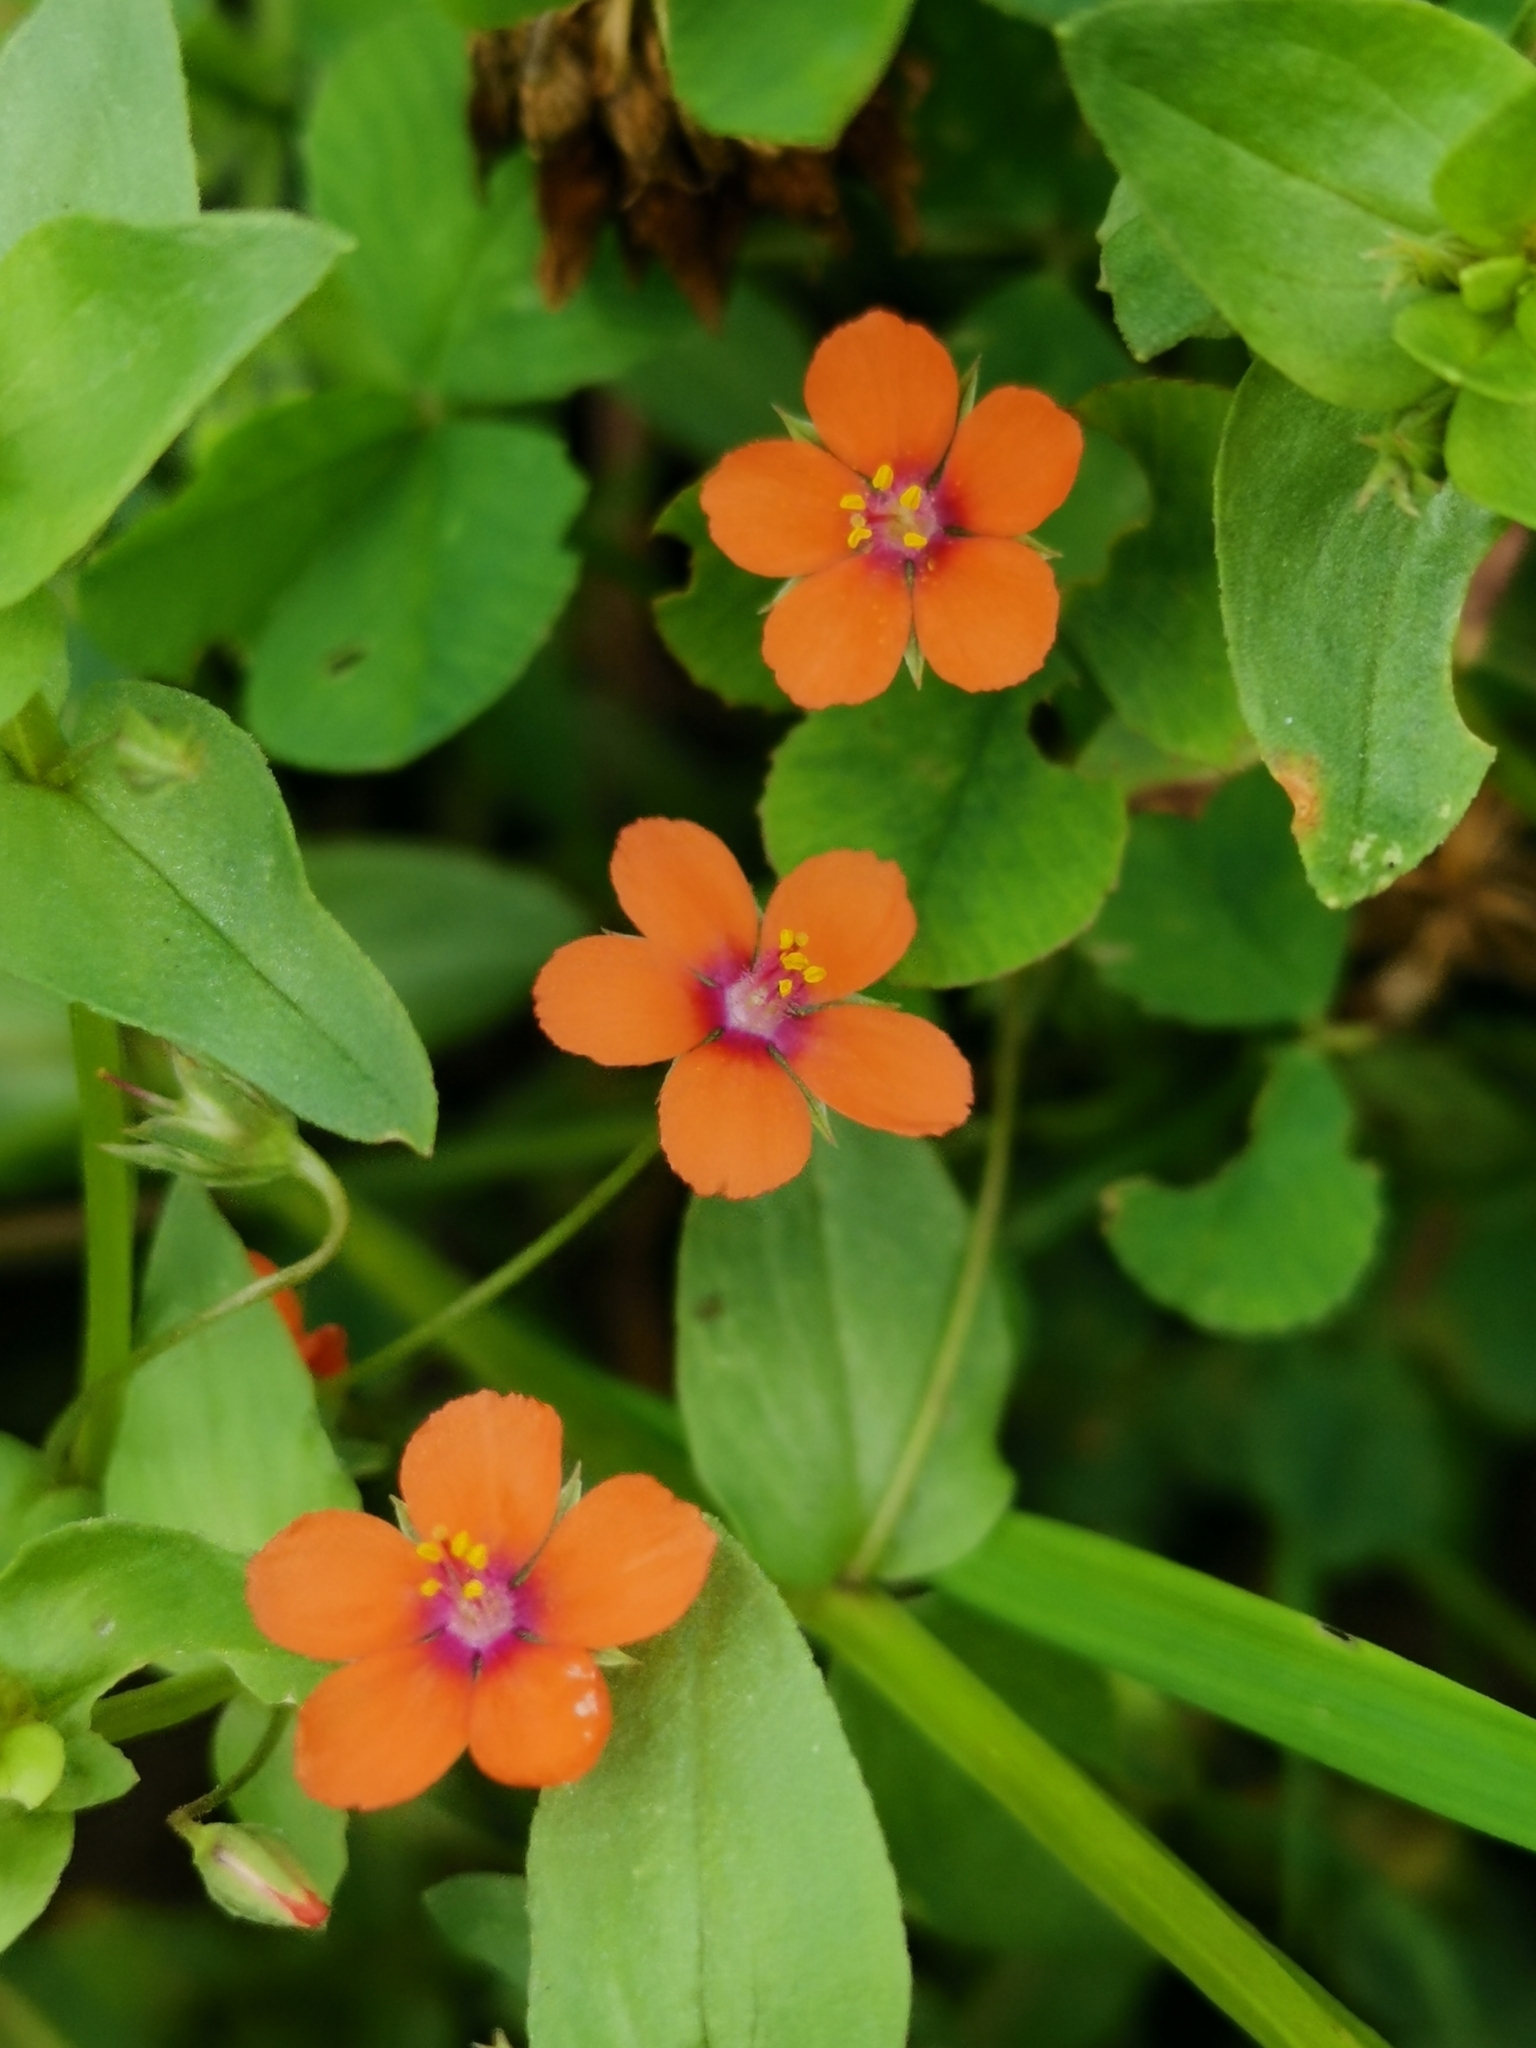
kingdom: Plantae
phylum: Tracheophyta
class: Magnoliopsida
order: Ericales
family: Primulaceae
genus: Lysimachia
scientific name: Lysimachia arvensis
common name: Scarlet pimpernel
